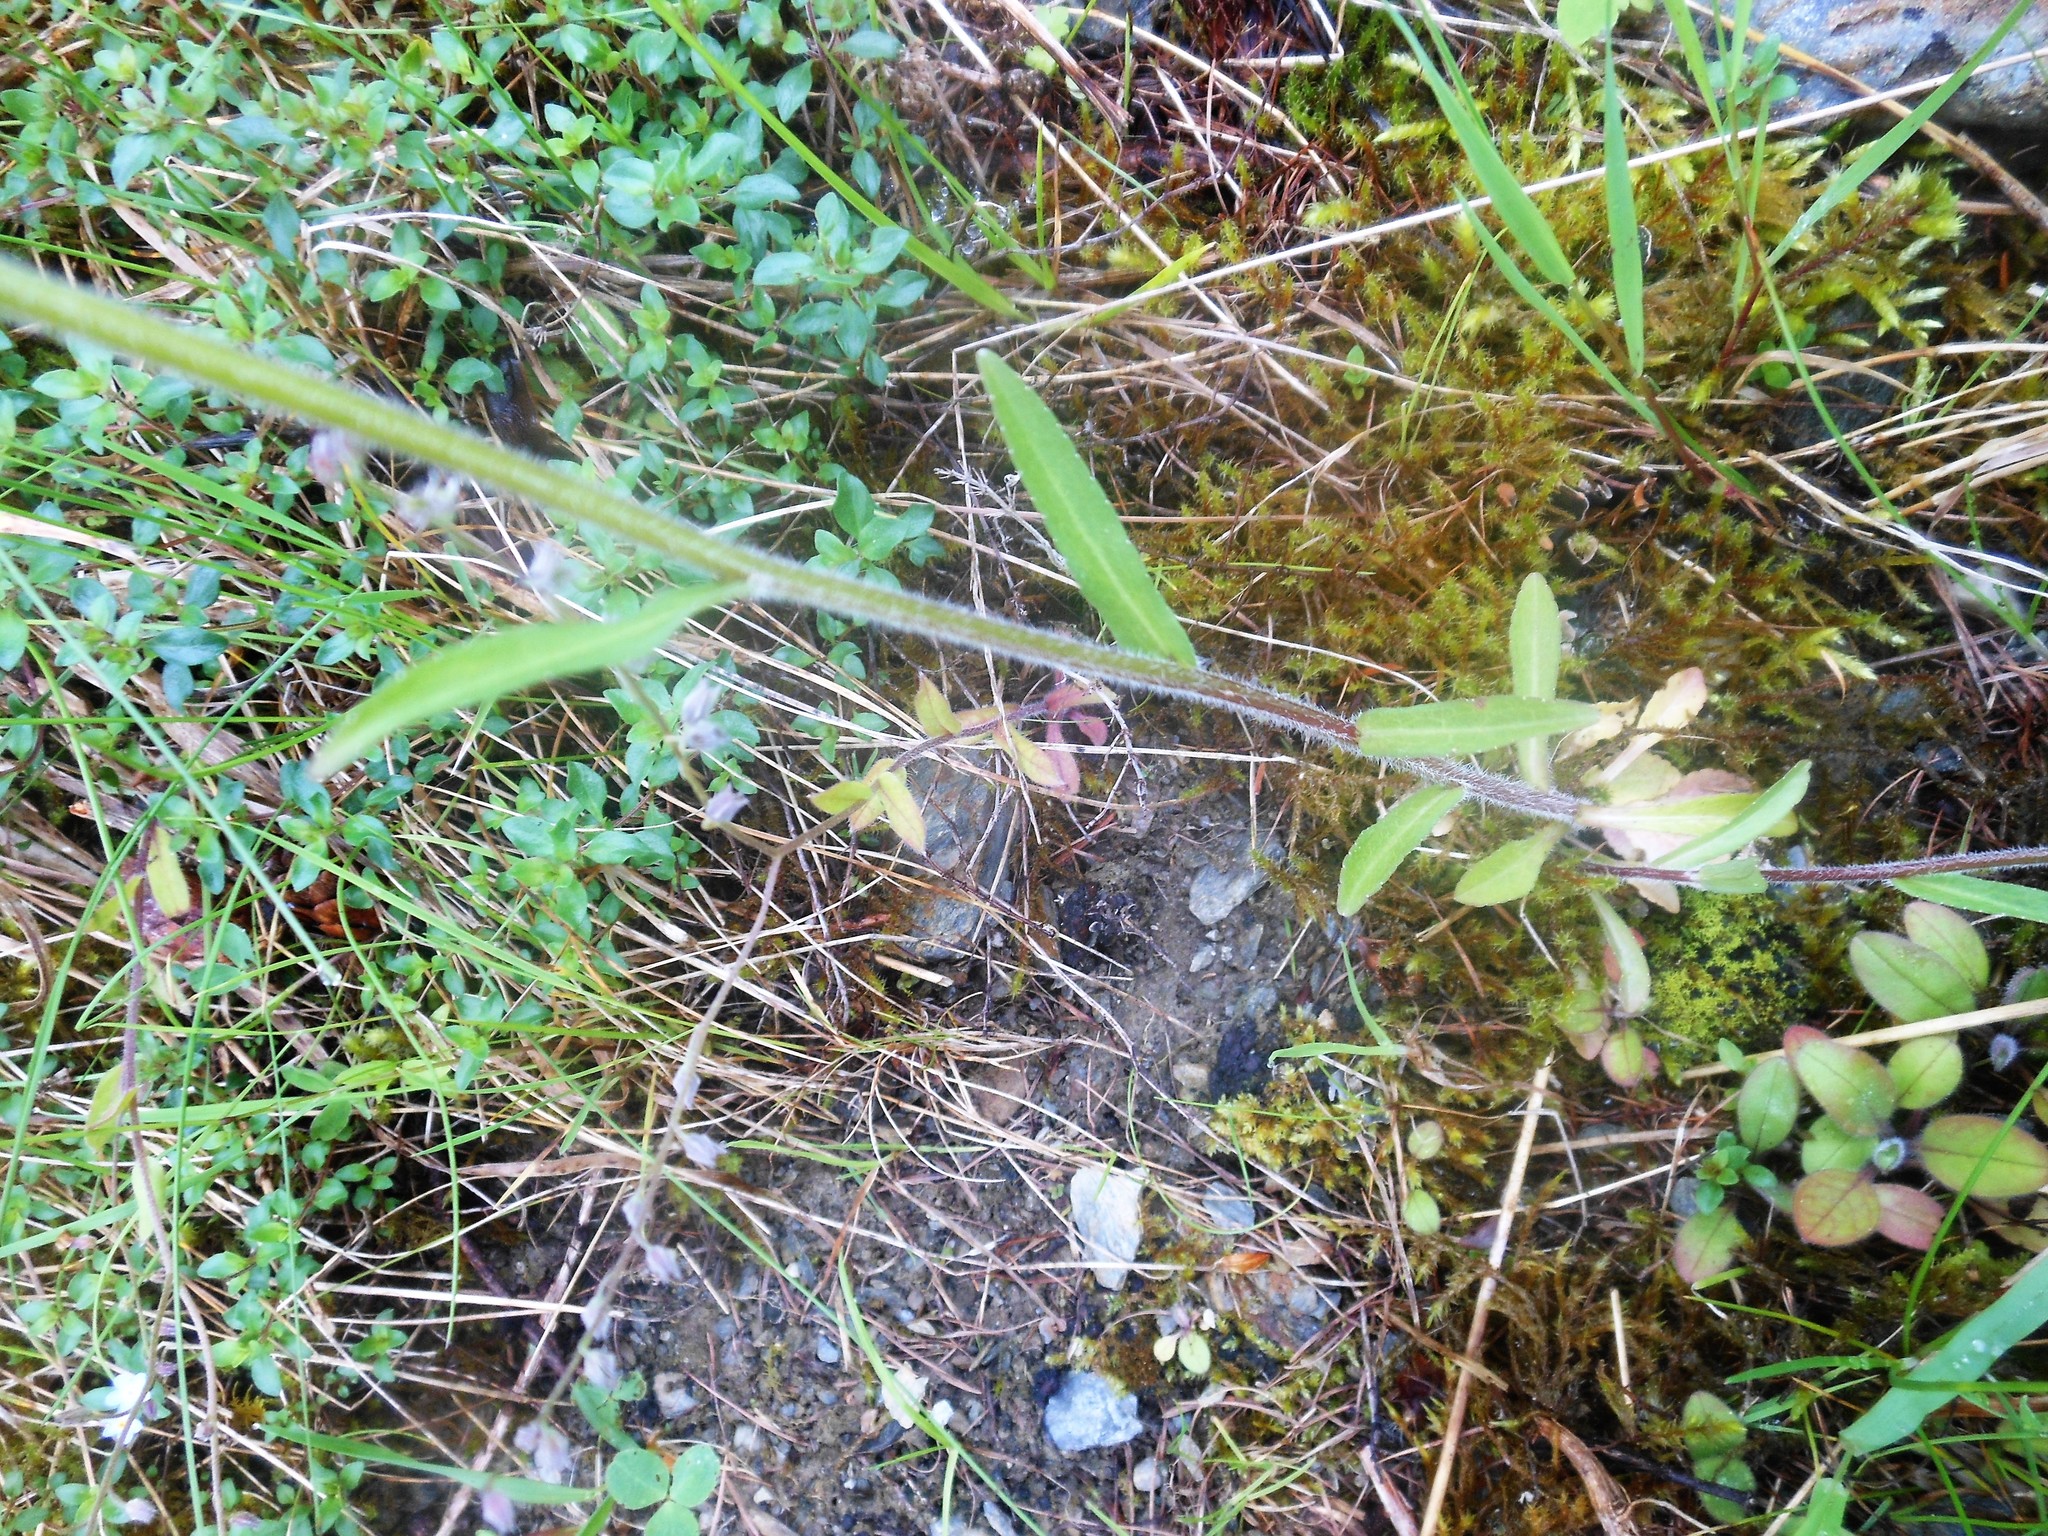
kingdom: Plantae
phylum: Tracheophyta
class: Magnoliopsida
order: Asterales
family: Campanulaceae
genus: Campanula
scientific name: Campanula patula
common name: Spreading bellflower
